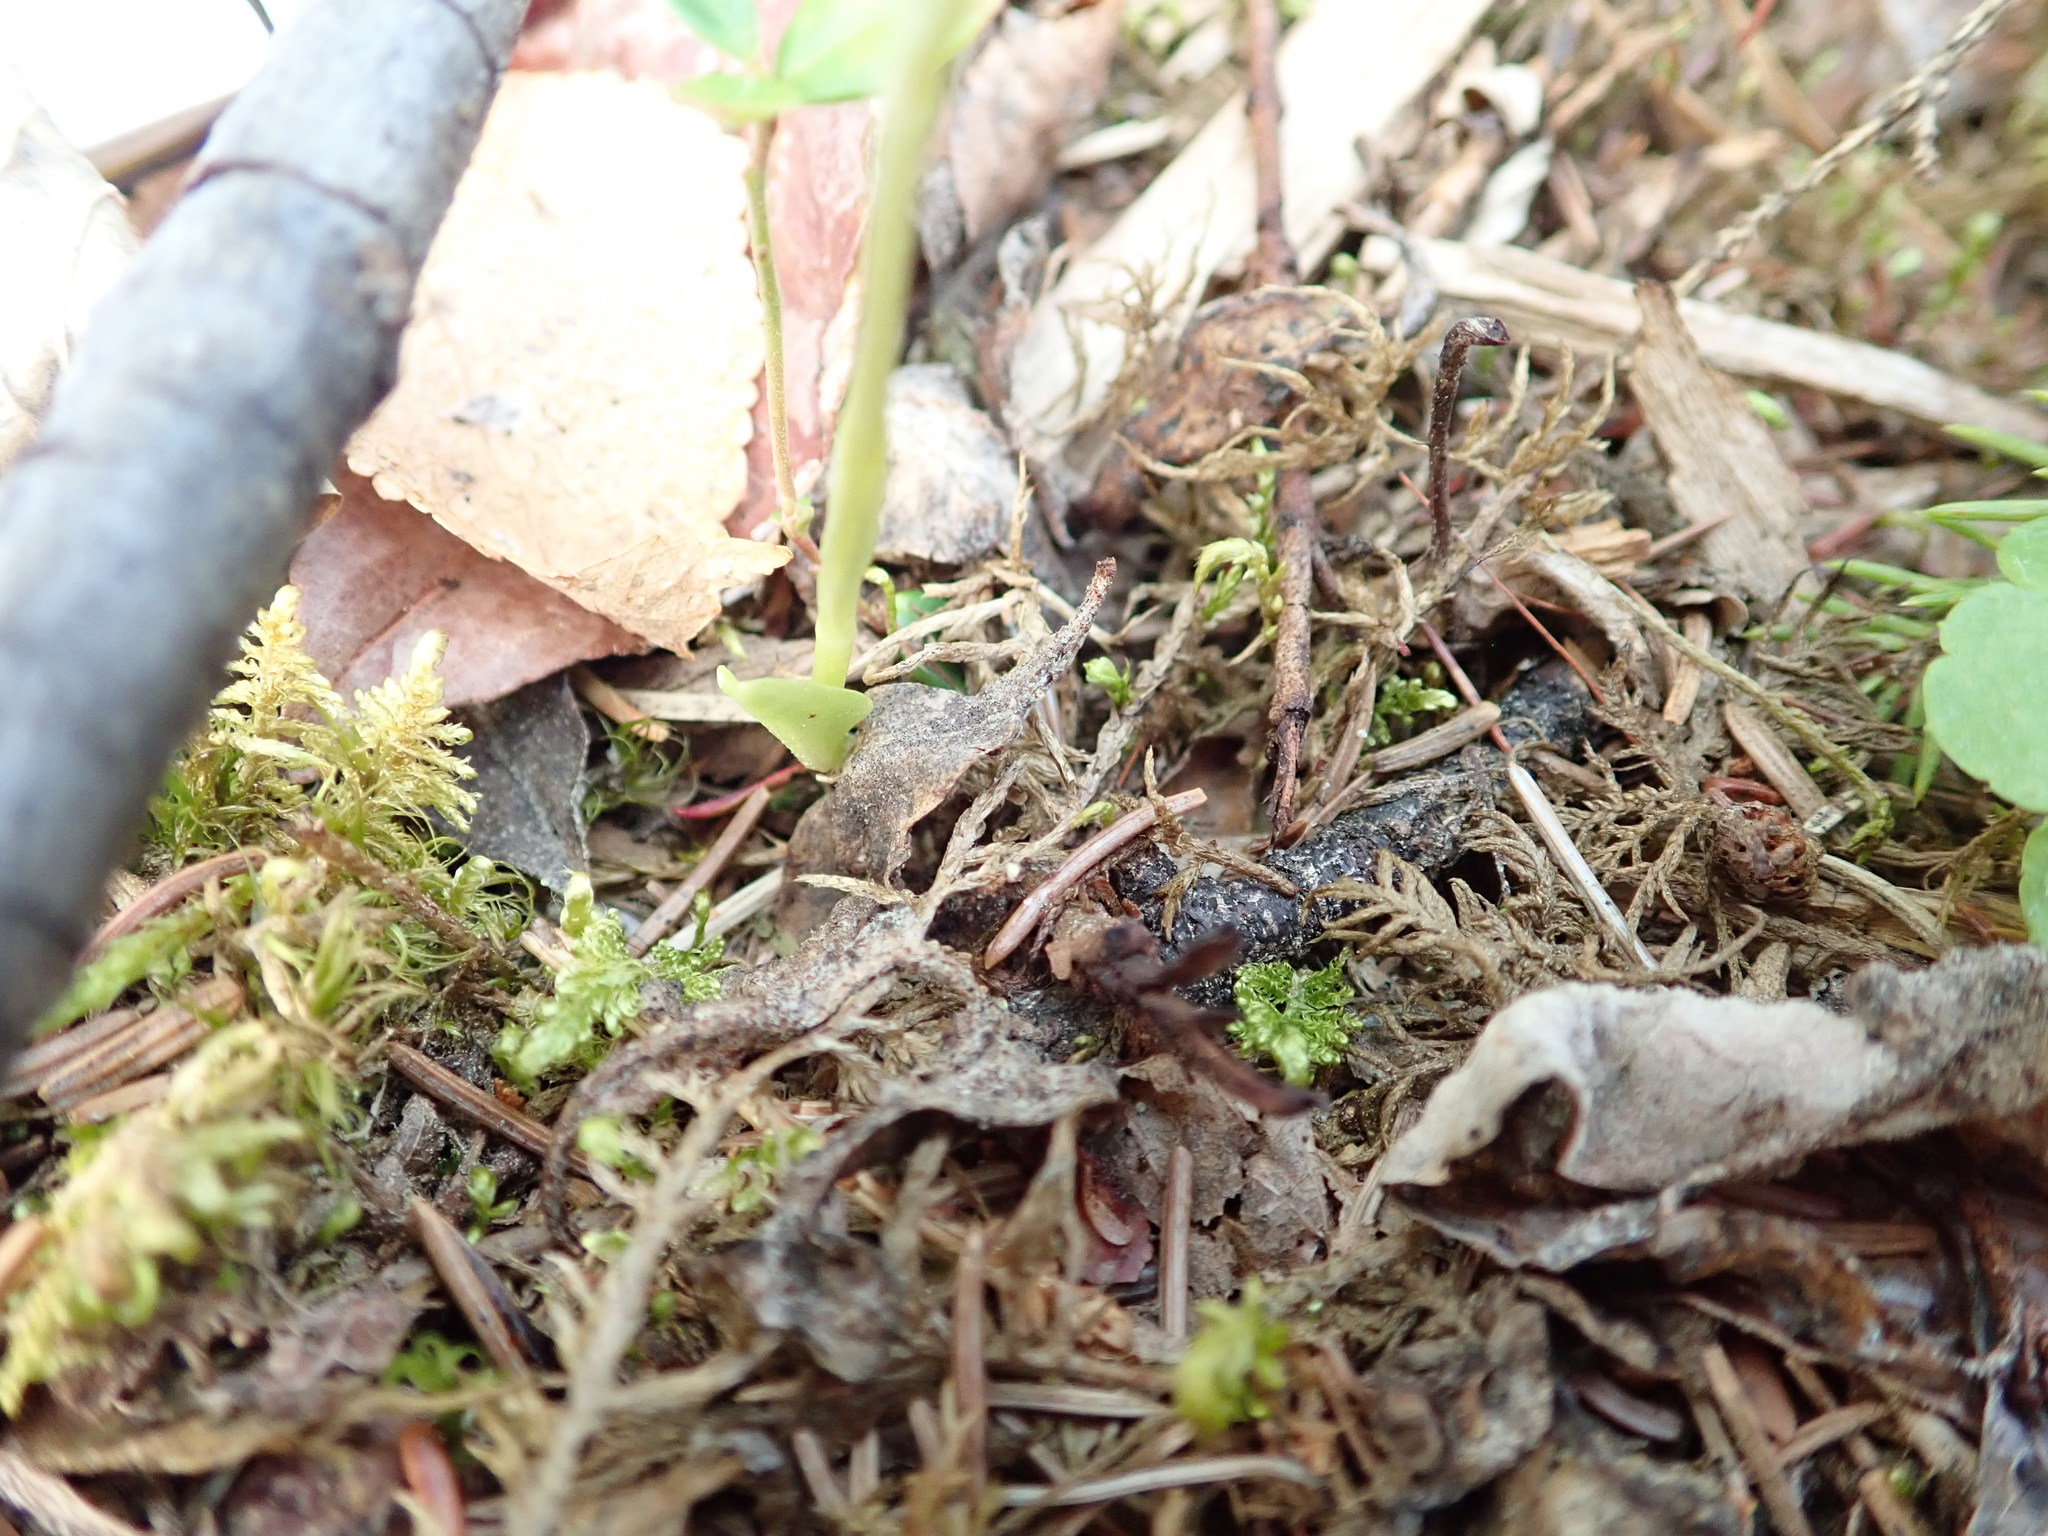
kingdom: Plantae
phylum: Tracheophyta
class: Liliopsida
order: Asparagales
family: Orchidaceae
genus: Goodyera
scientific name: Goodyera repens
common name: Creeping lady's-tresses
